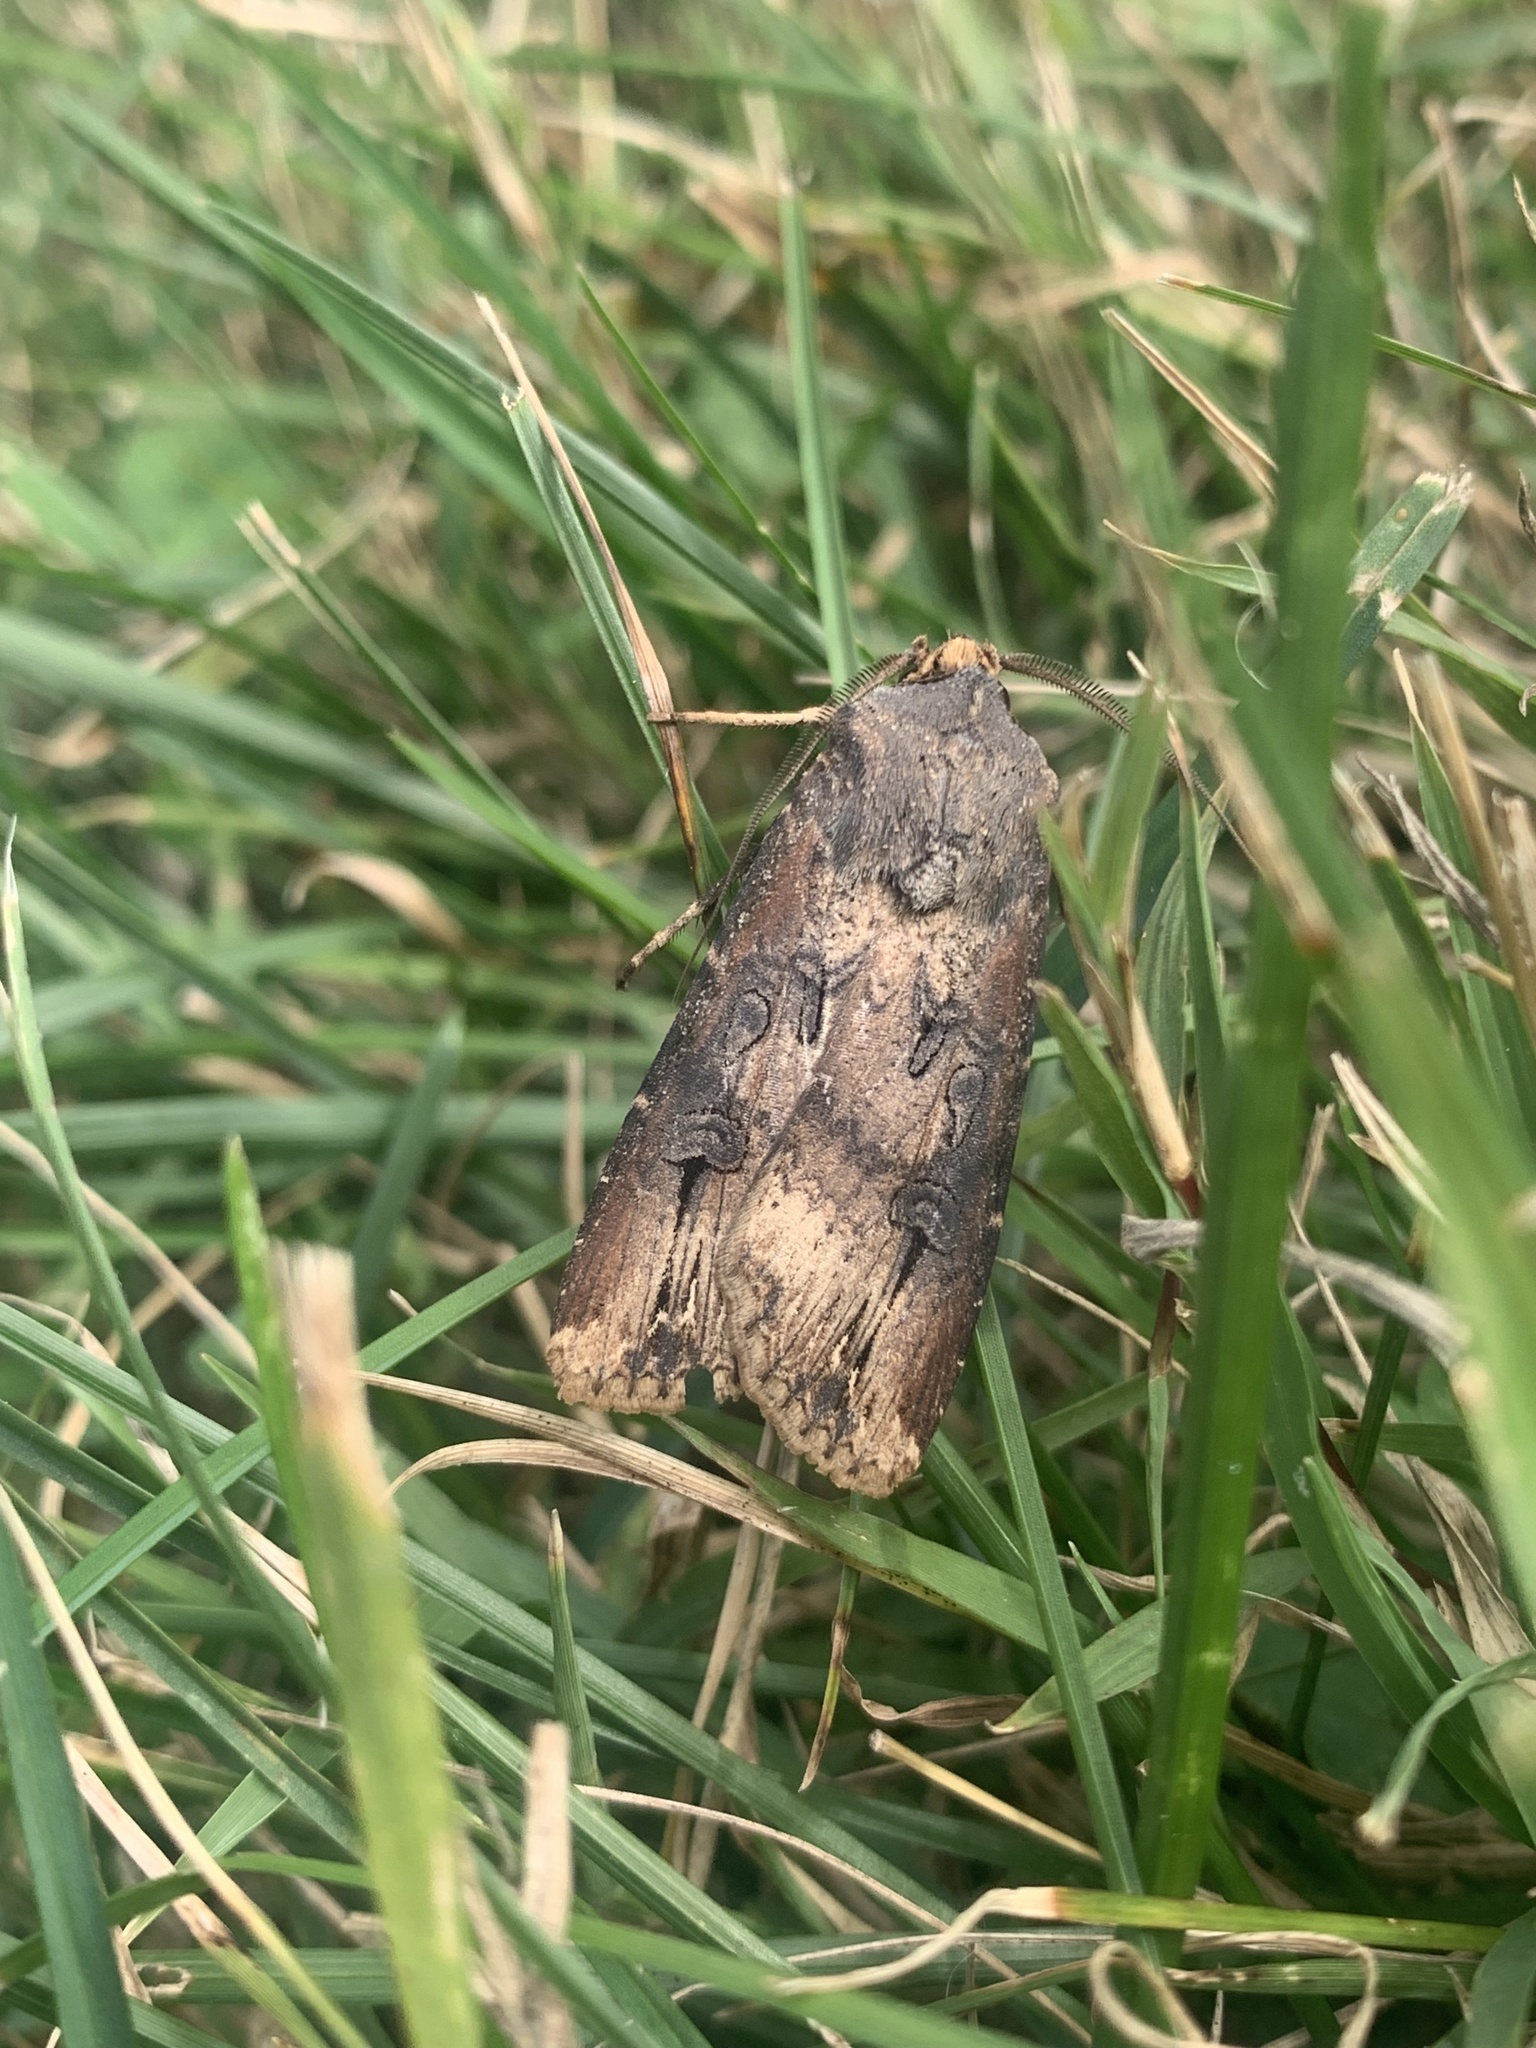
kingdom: Animalia
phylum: Arthropoda
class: Insecta
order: Lepidoptera
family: Noctuidae
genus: Agrotis
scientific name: Agrotis ipsilon
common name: Dark sword-grass
